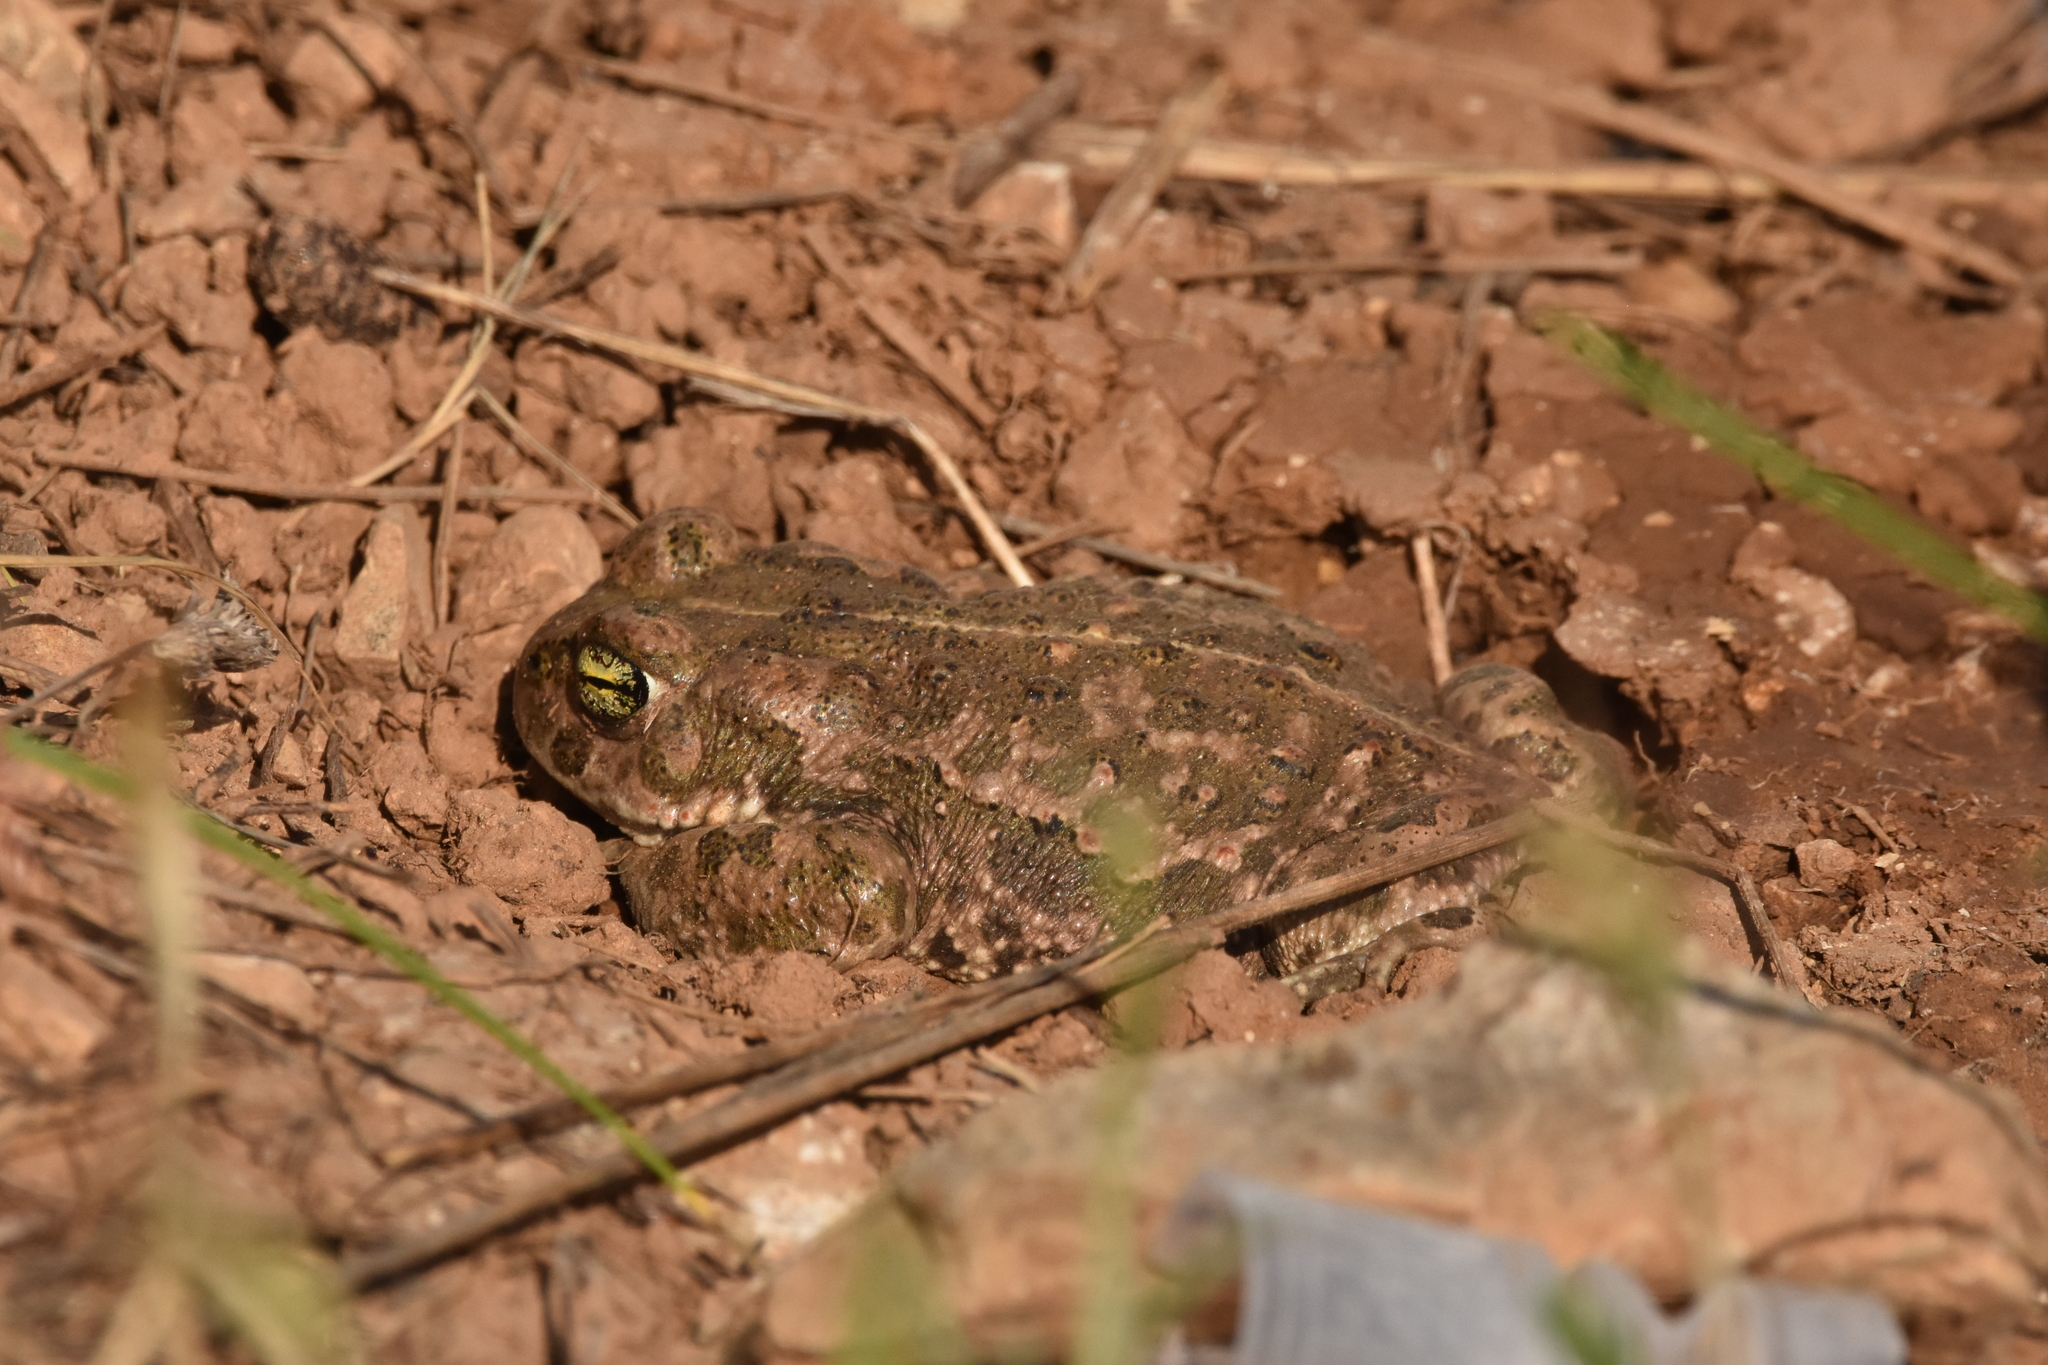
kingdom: Animalia
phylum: Chordata
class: Amphibia
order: Anura
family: Bufonidae
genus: Epidalea
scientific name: Epidalea calamita
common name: Natterjack toad
